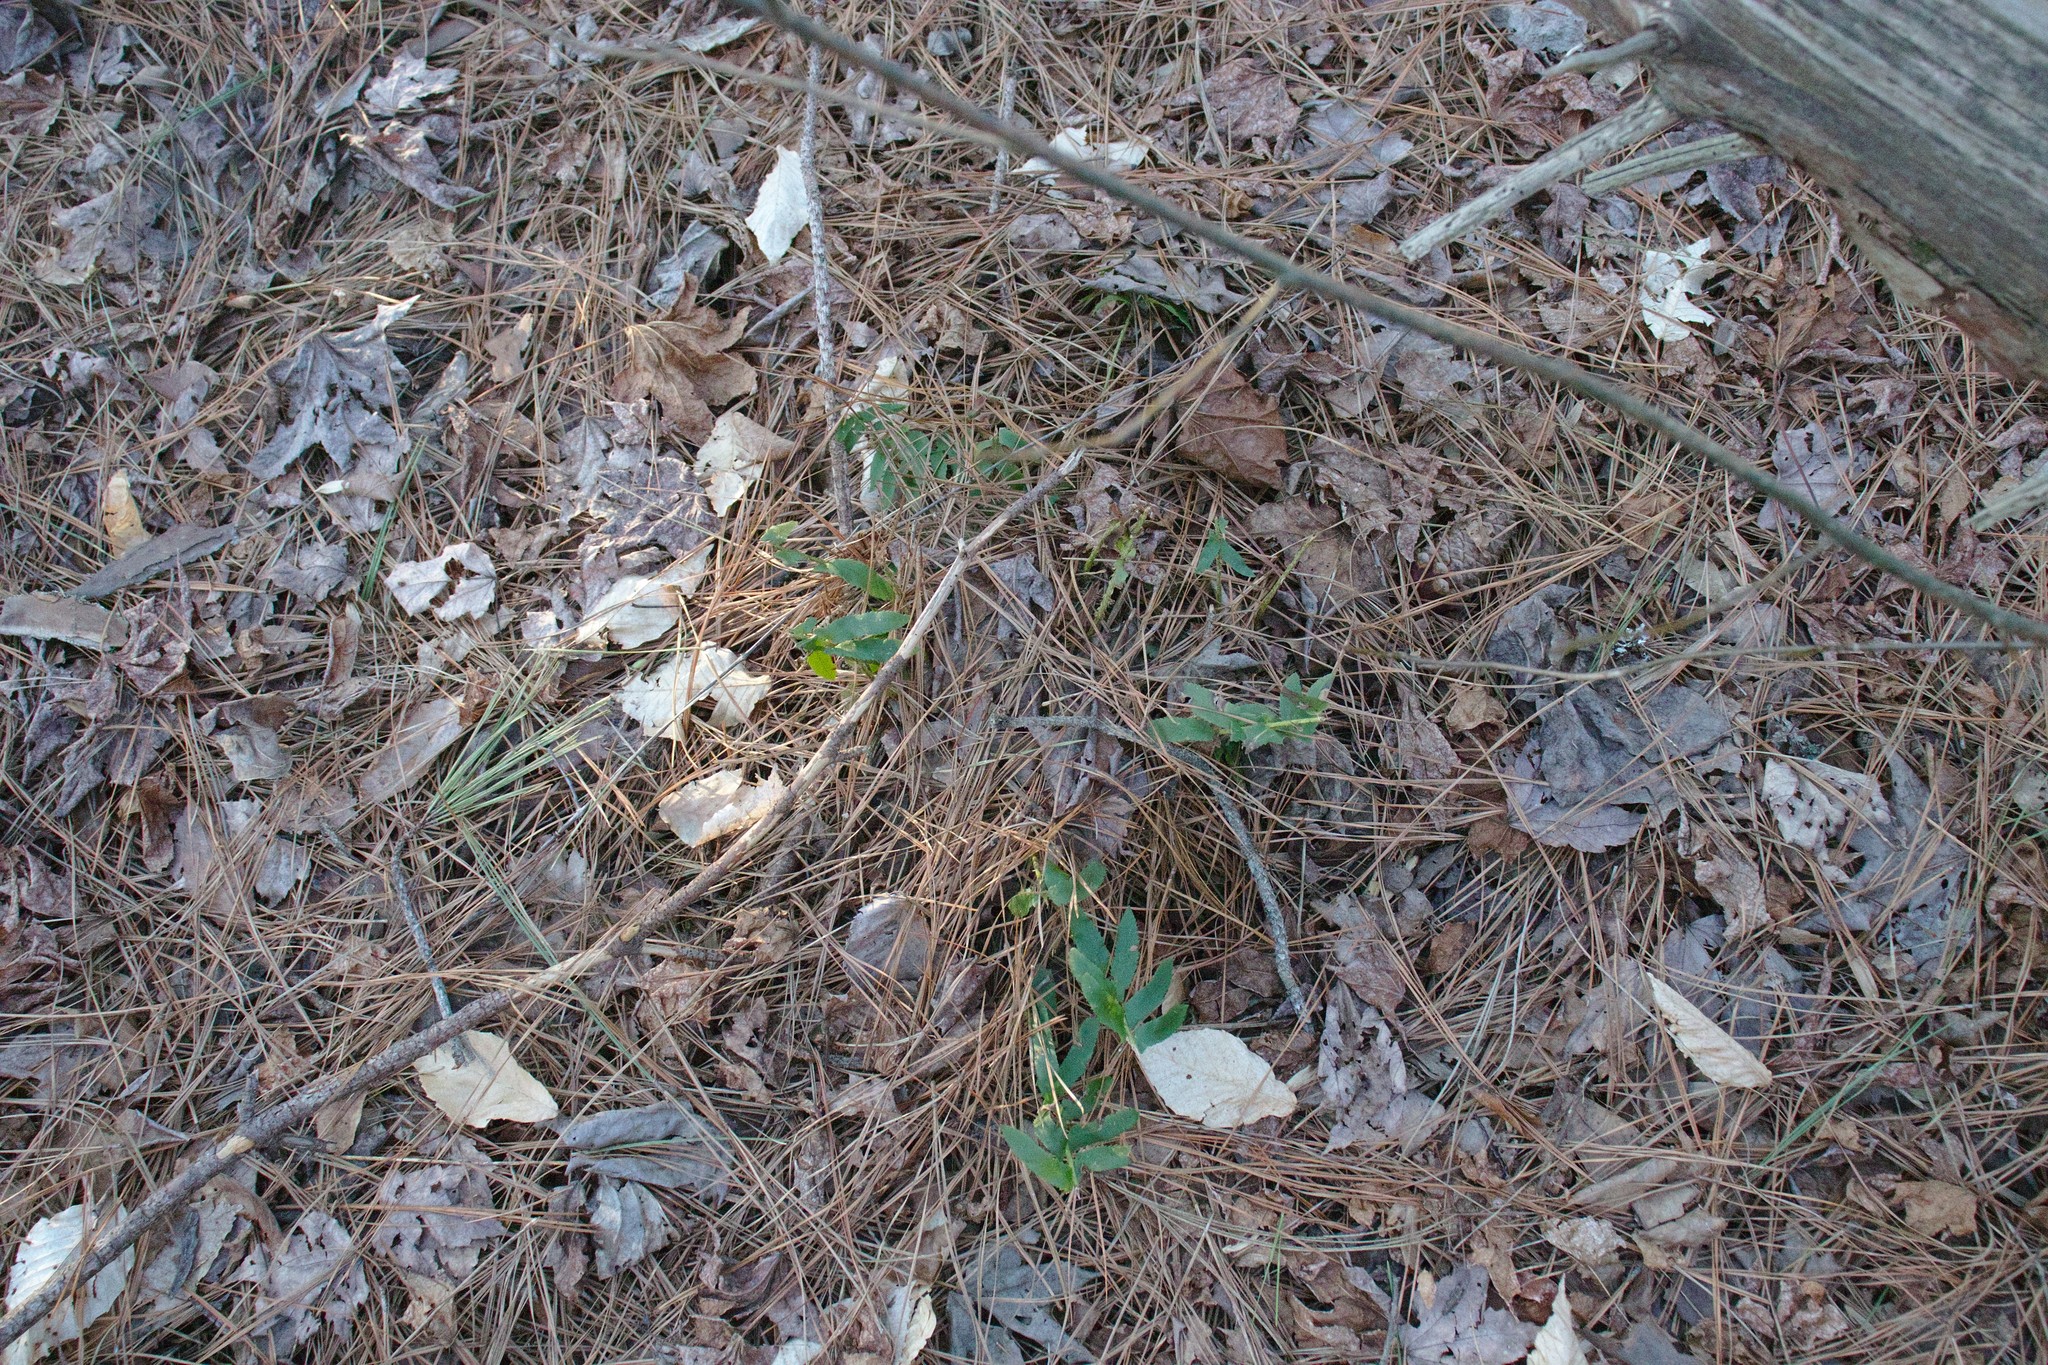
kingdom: Plantae
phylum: Tracheophyta
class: Polypodiopsida
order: Polypodiales
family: Dryopteridaceae
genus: Polystichum
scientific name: Polystichum acrostichoides
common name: Christmas fern
